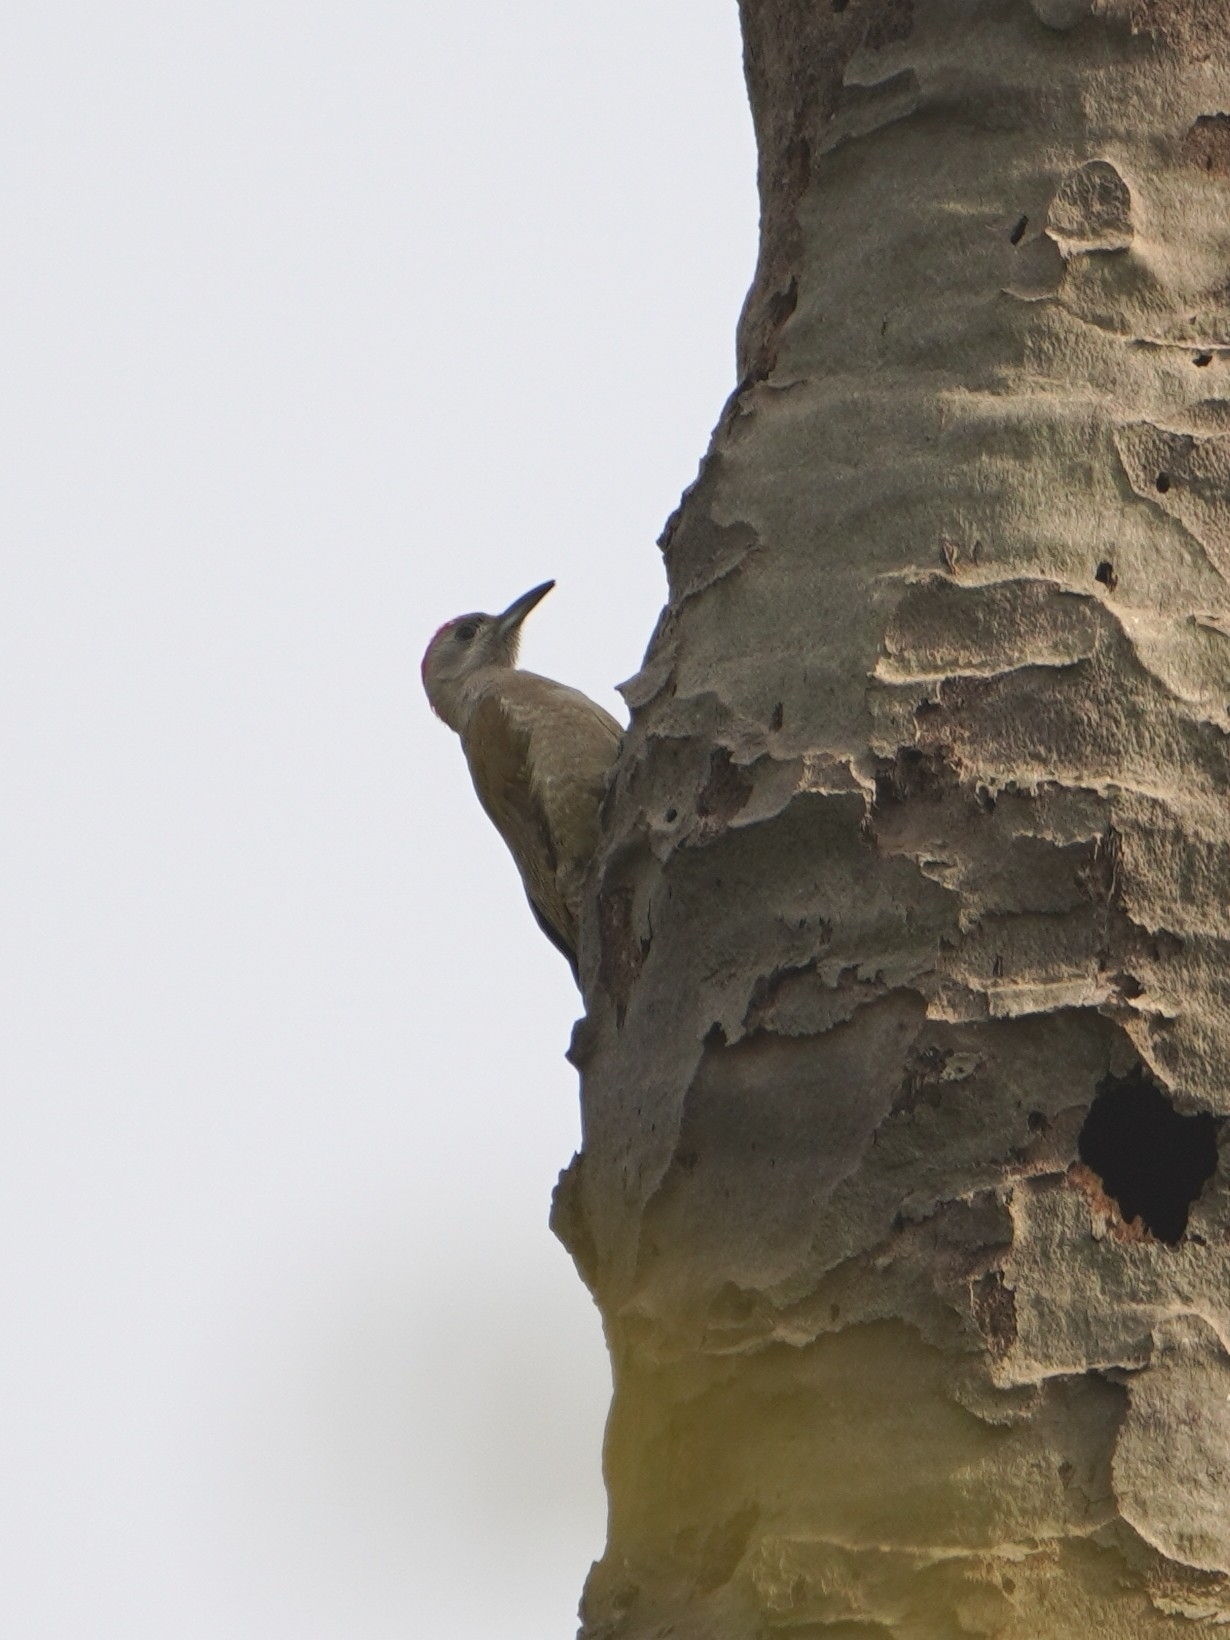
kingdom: Animalia
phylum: Chordata
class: Aves
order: Piciformes
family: Picidae
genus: Dendropicos
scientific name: Dendropicos goertae
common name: African grey woodpecker
